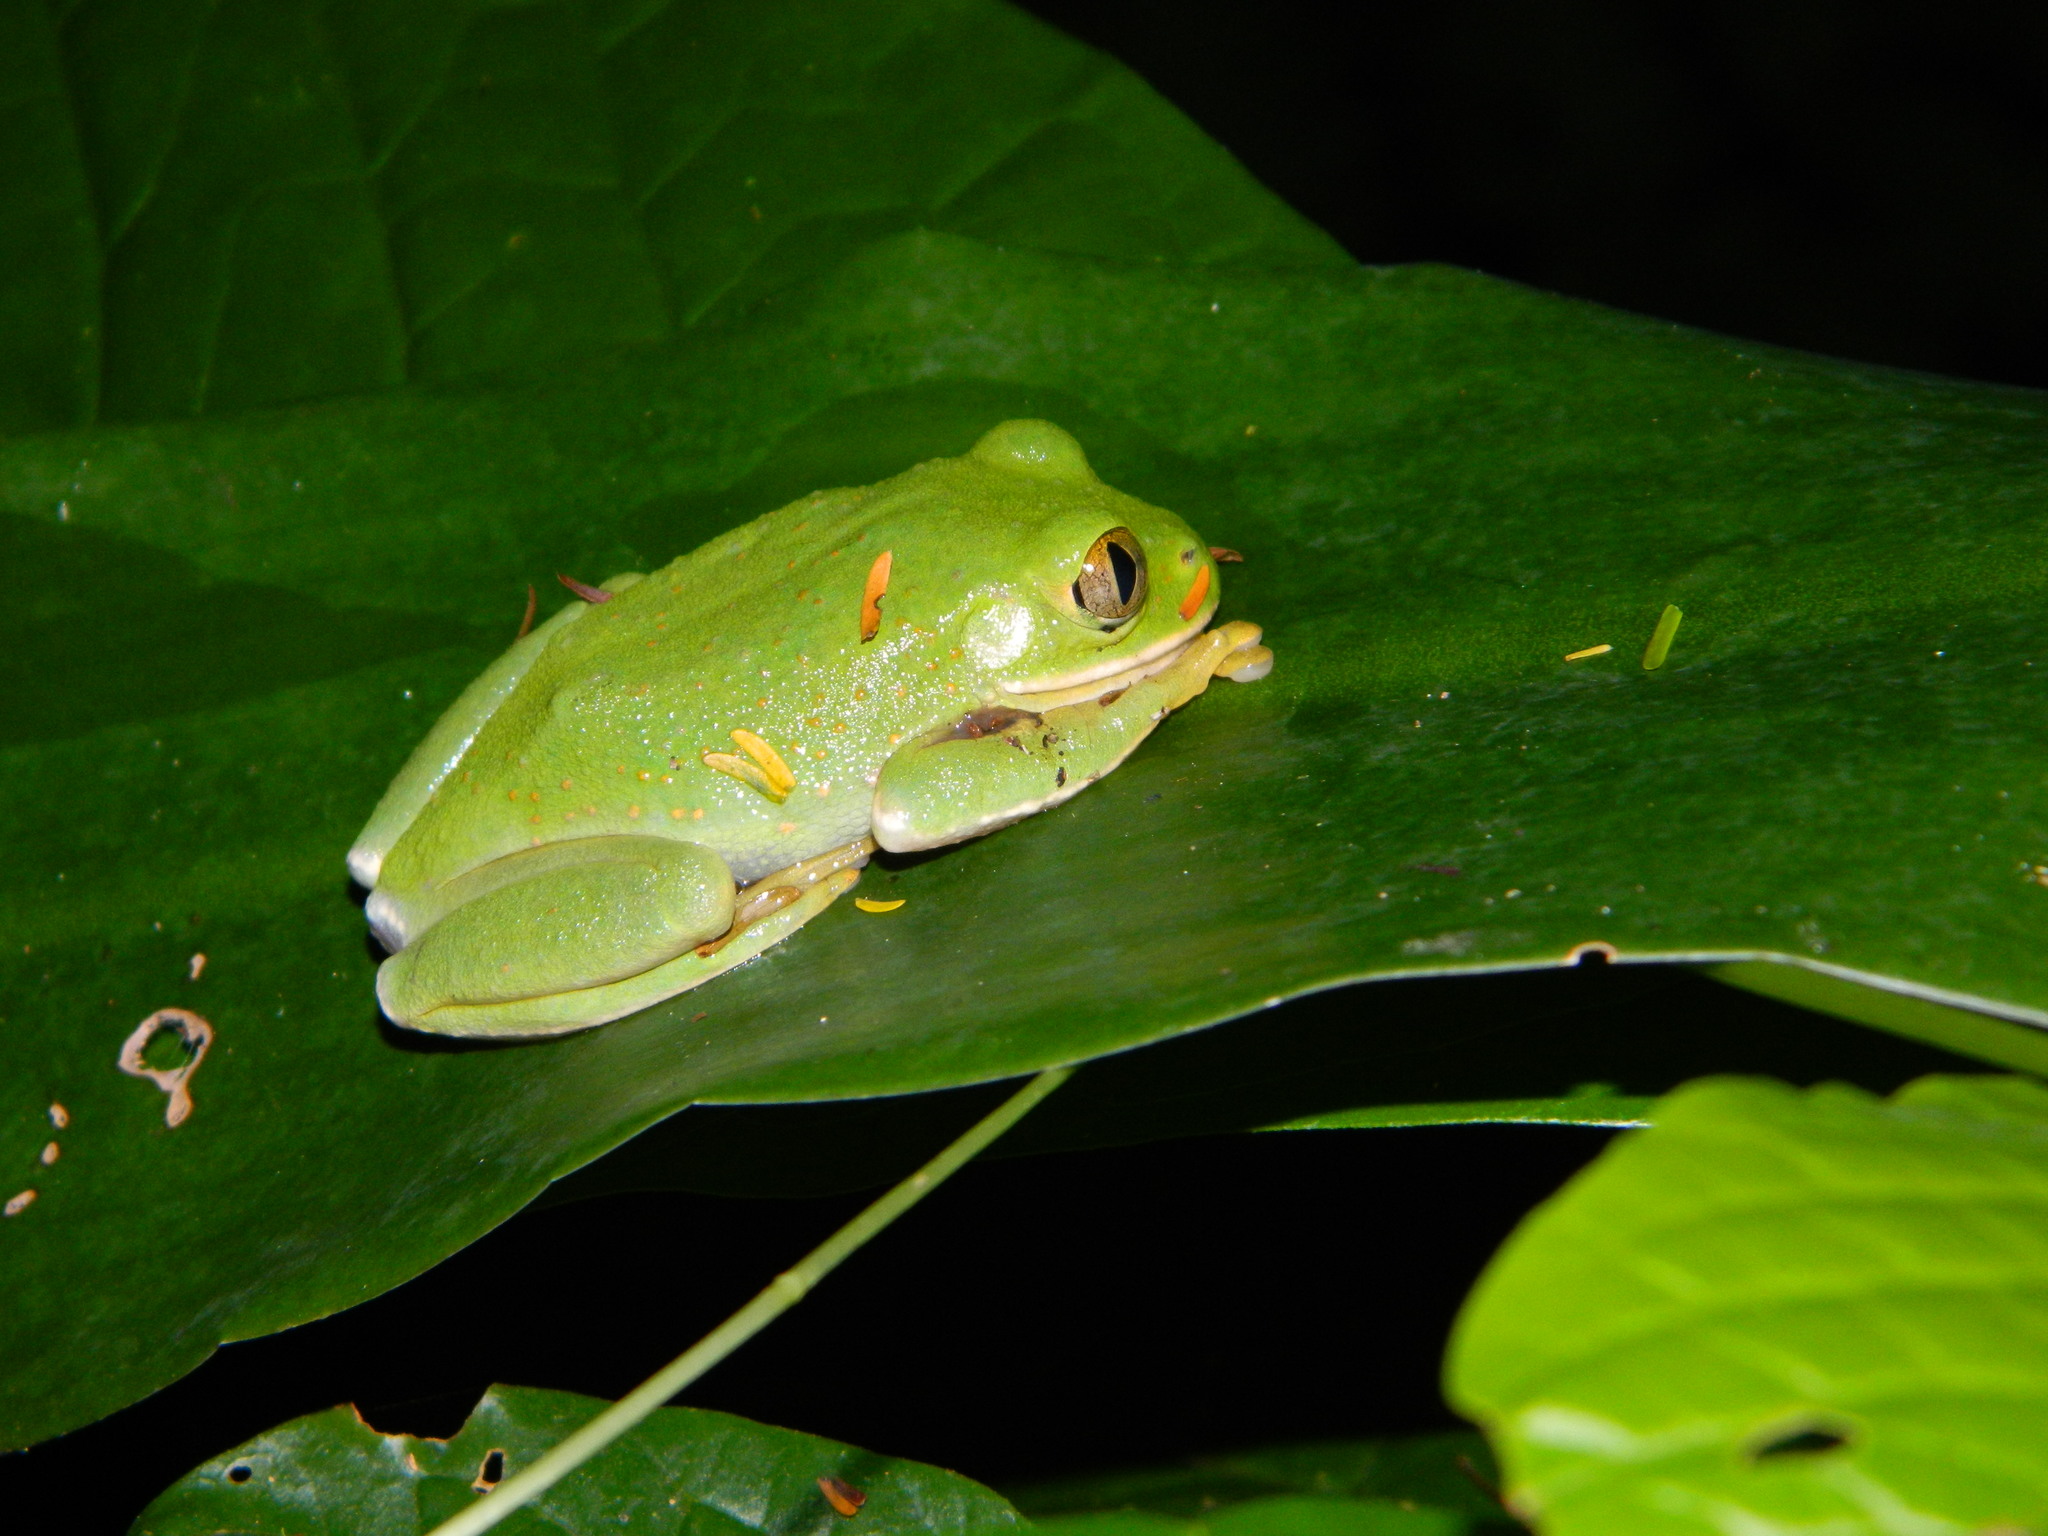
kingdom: Animalia
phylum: Chordata
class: Amphibia
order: Anura
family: Arthroleptidae
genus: Leptopelis
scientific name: Leptopelis flavomaculatus
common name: Johnston's treefrog
